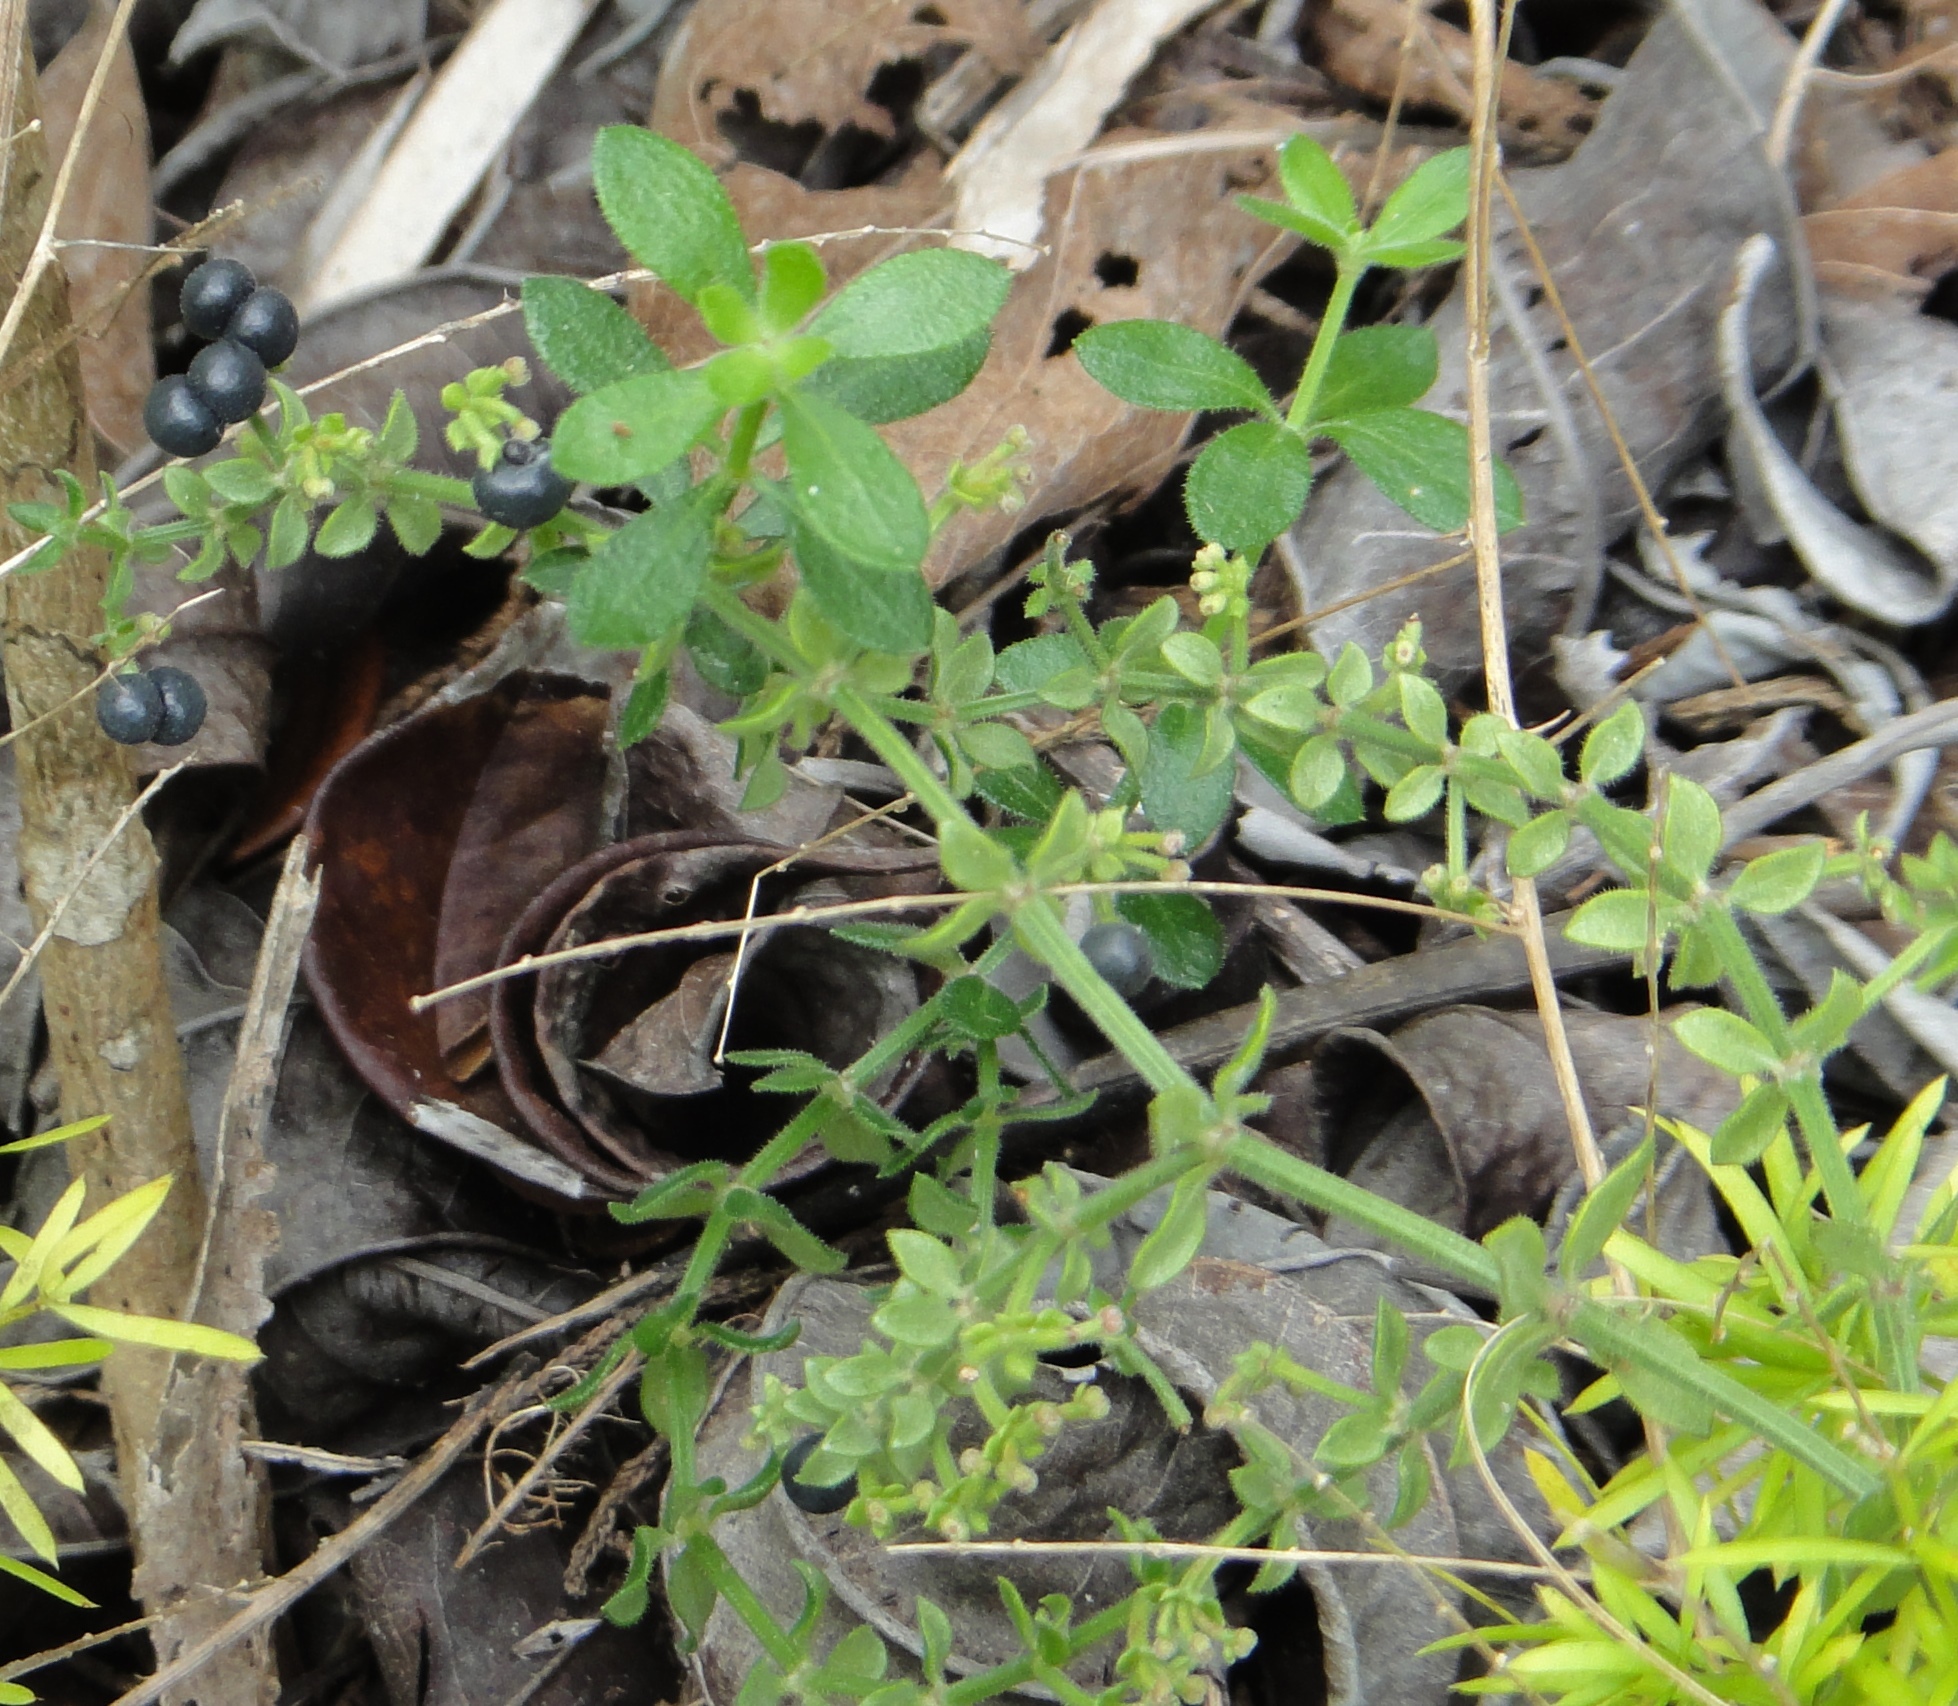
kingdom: Plantae
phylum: Tracheophyta
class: Magnoliopsida
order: Gentianales
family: Rubiaceae
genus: Galium
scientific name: Galium bermudense
